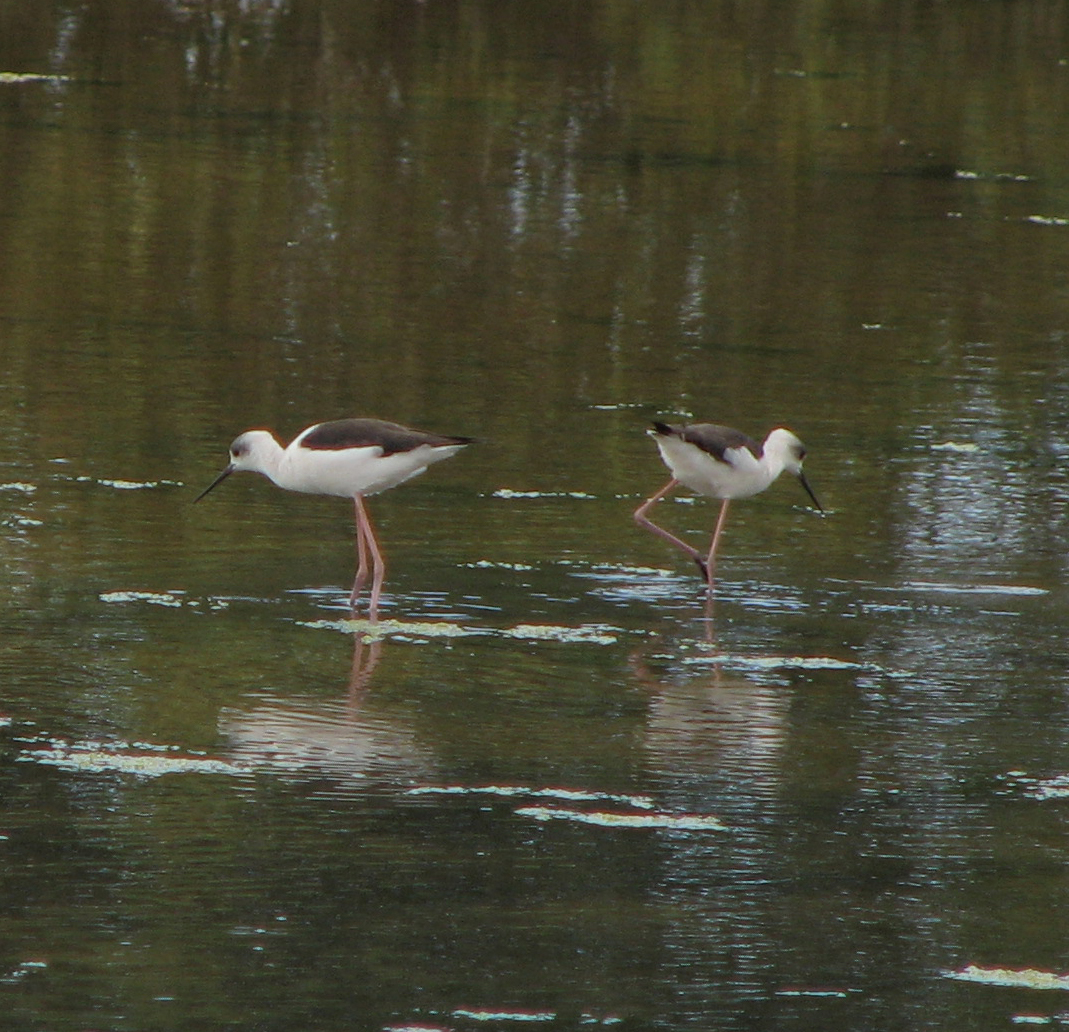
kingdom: Animalia
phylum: Chordata
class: Aves
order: Charadriiformes
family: Recurvirostridae
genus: Himantopus
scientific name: Himantopus leucocephalus
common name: White-headed stilt
